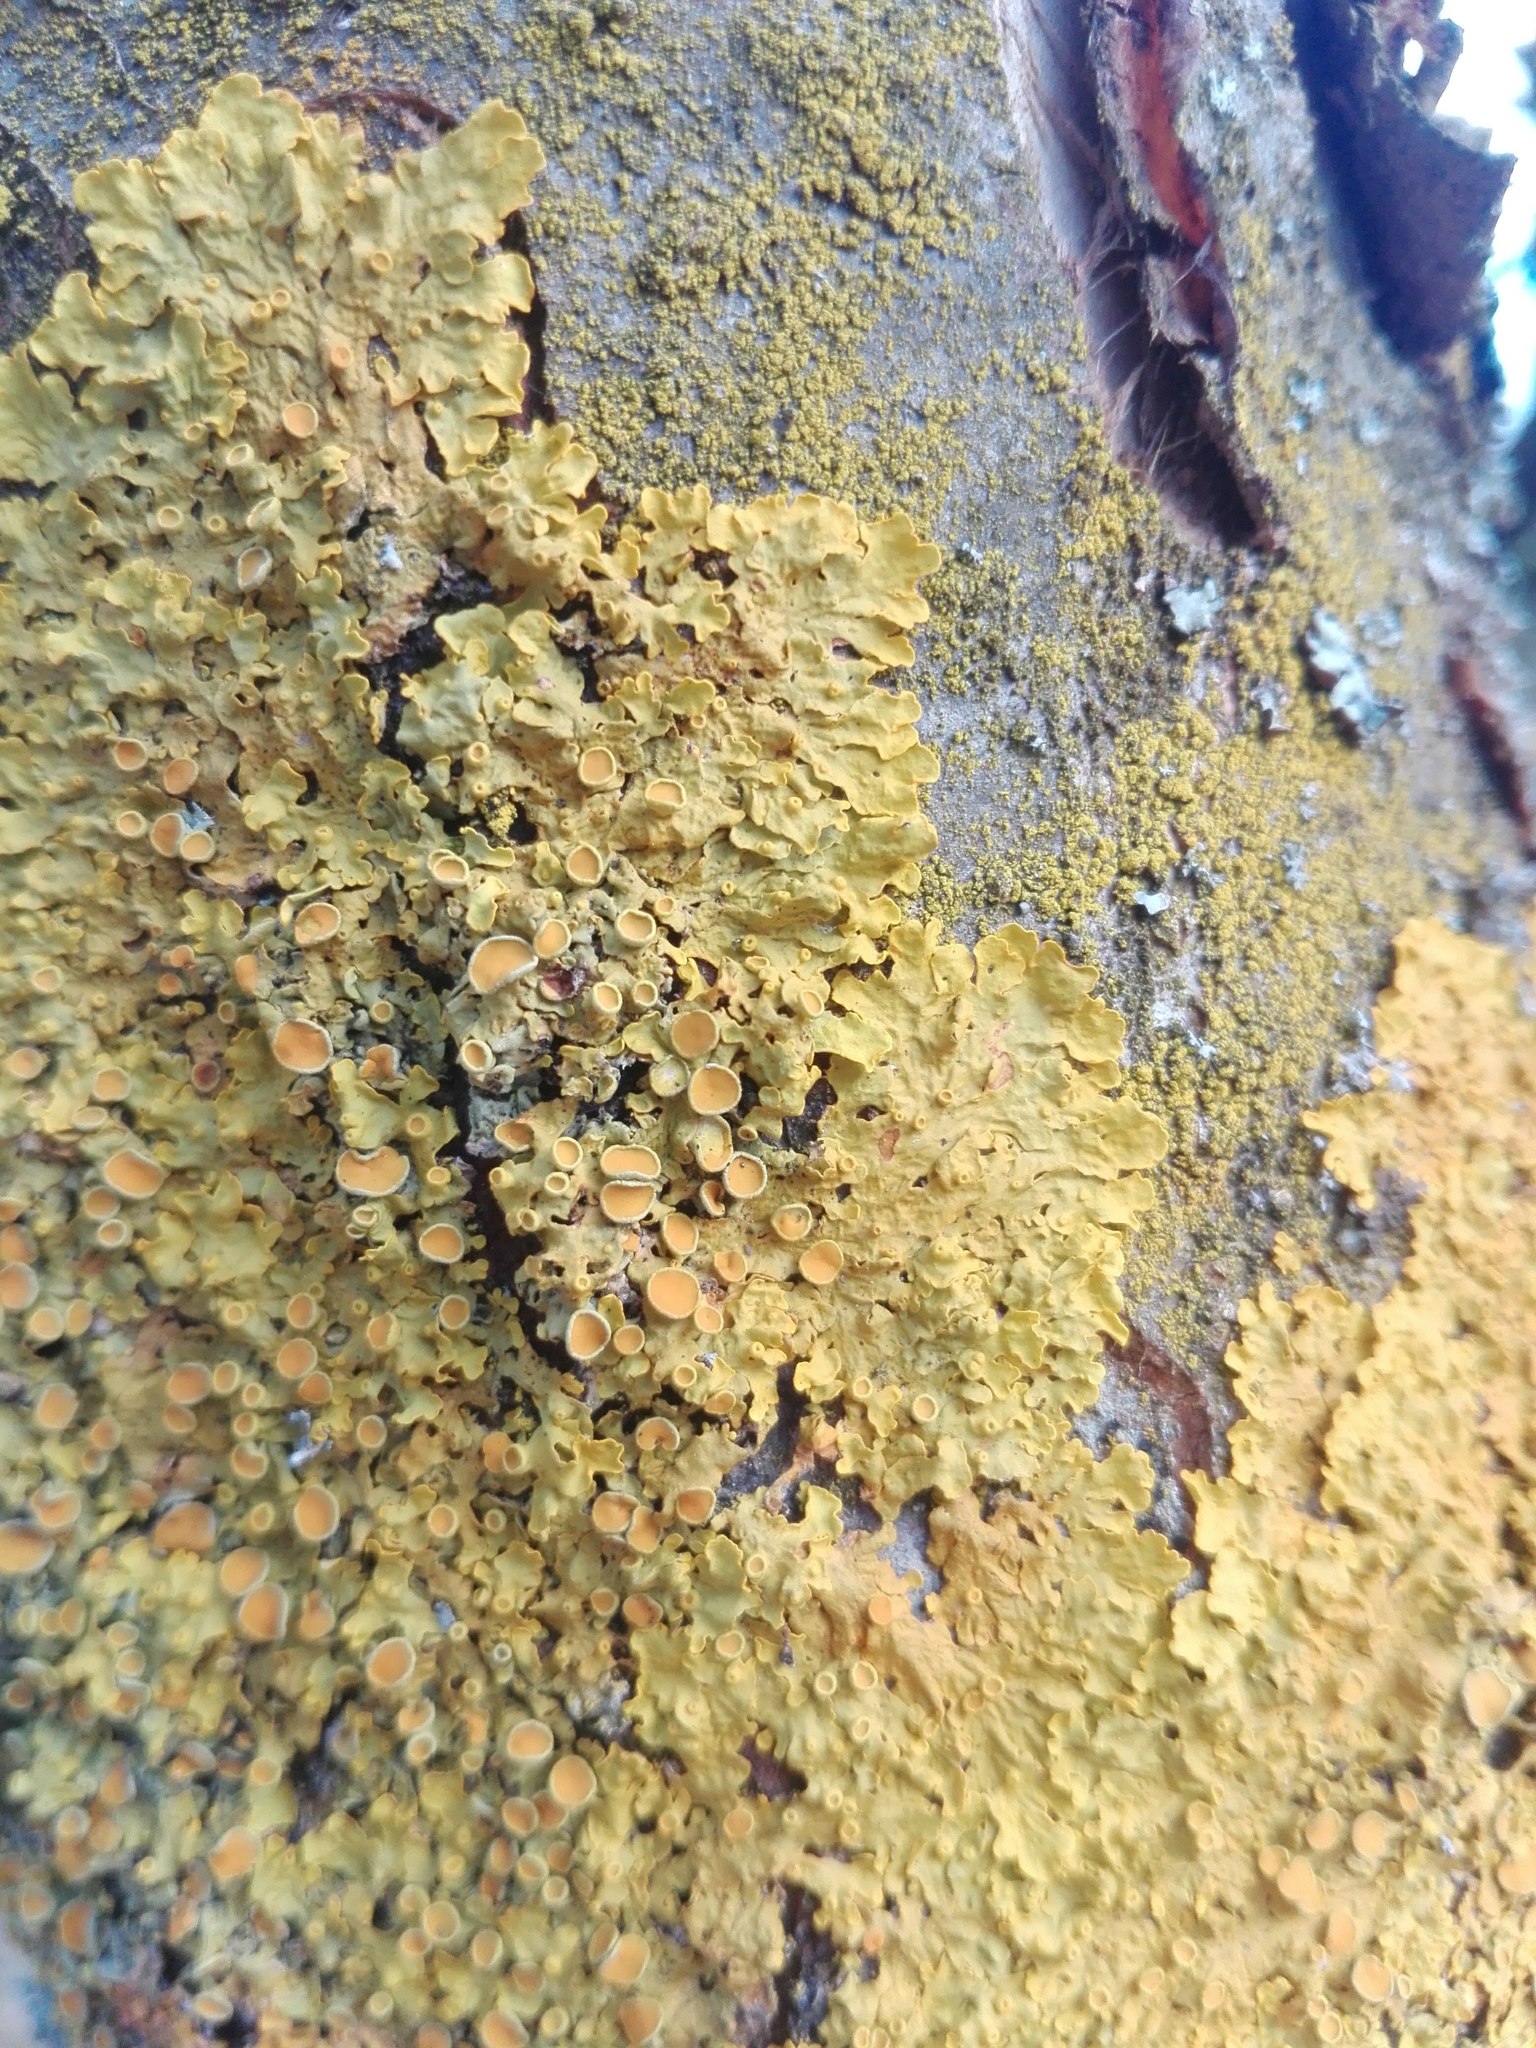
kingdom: Fungi
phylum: Ascomycota
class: Lecanoromycetes
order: Teloschistales
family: Teloschistaceae
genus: Xanthoria
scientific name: Xanthoria parietina
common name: Common orange lichen
